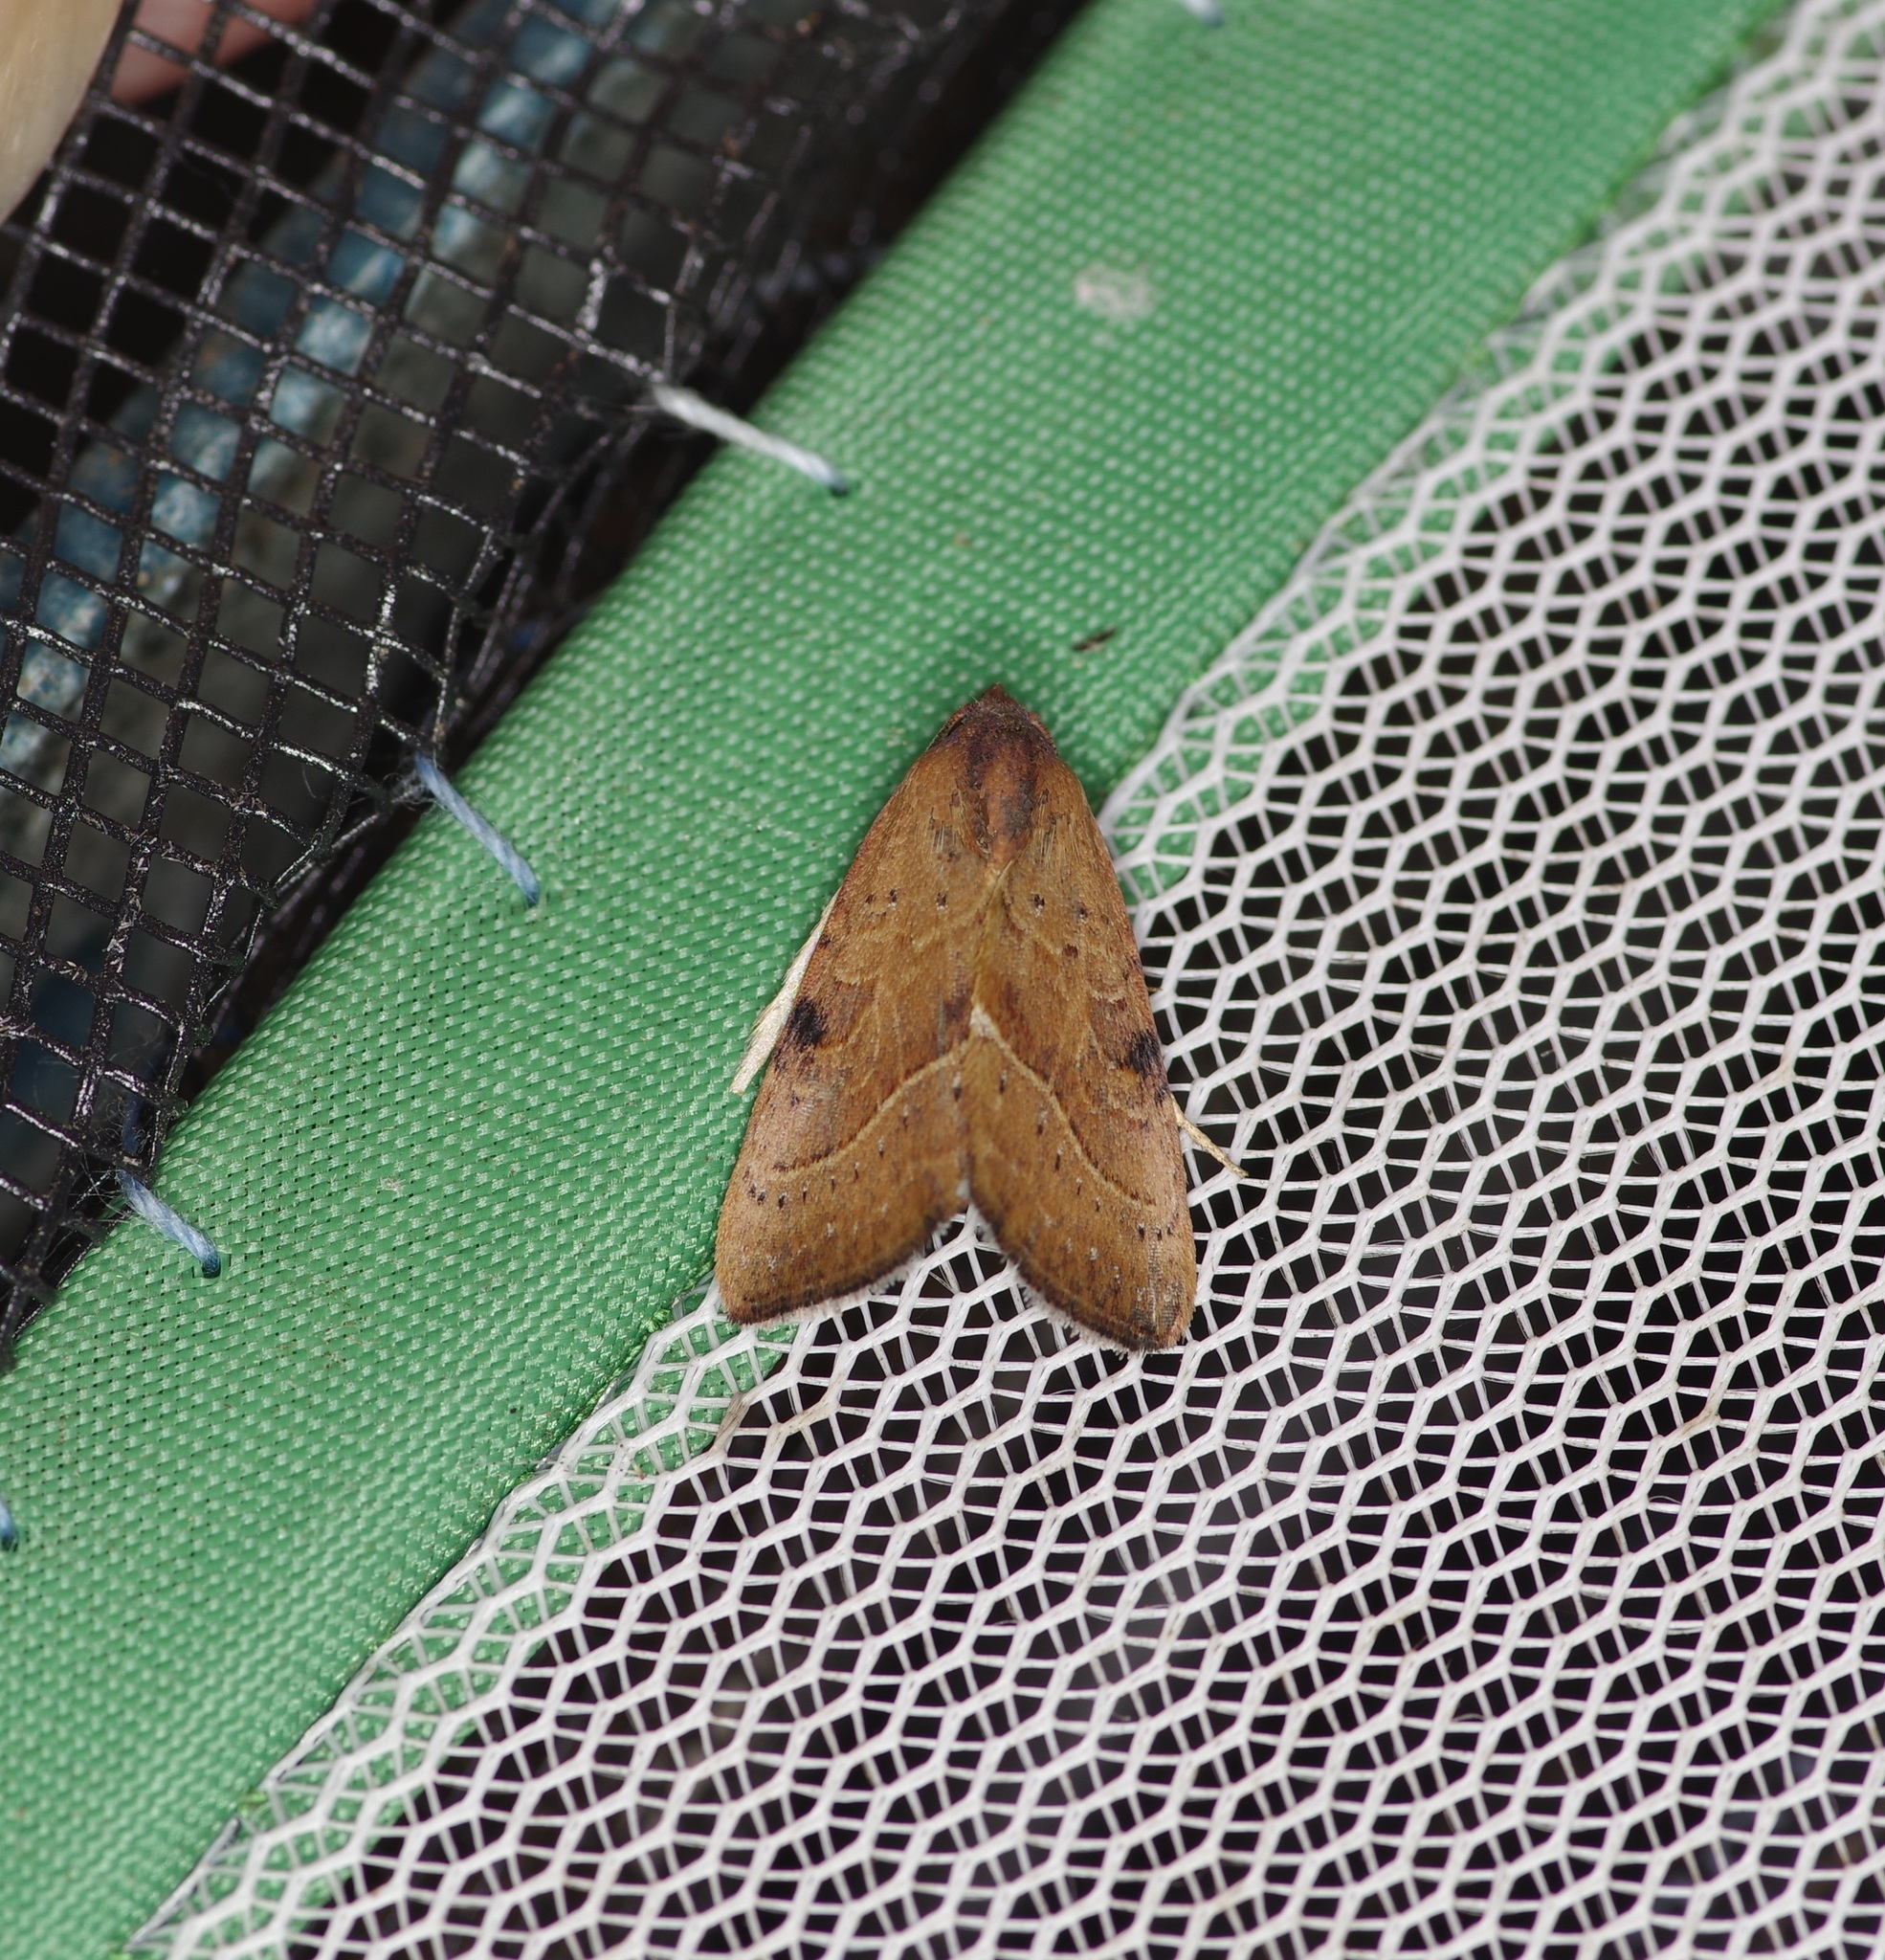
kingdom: Animalia
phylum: Arthropoda
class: Insecta
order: Lepidoptera
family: Noctuidae
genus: Galgula
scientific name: Galgula partita
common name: Wedgeling
